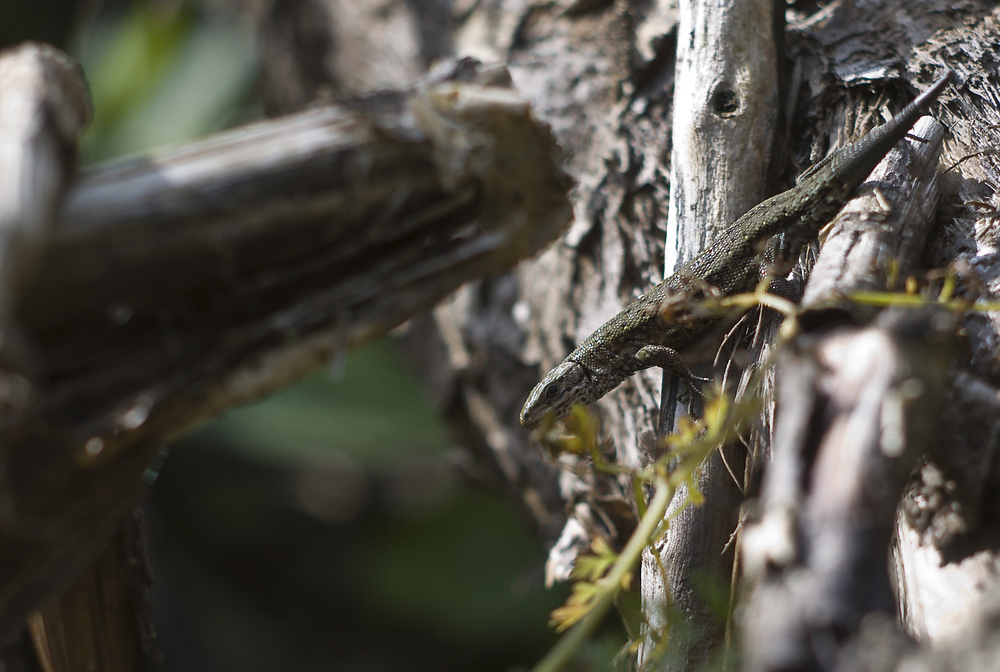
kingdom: Animalia
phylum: Chordata
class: Squamata
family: Lacertidae
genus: Zootoca
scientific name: Zootoca vivipara
